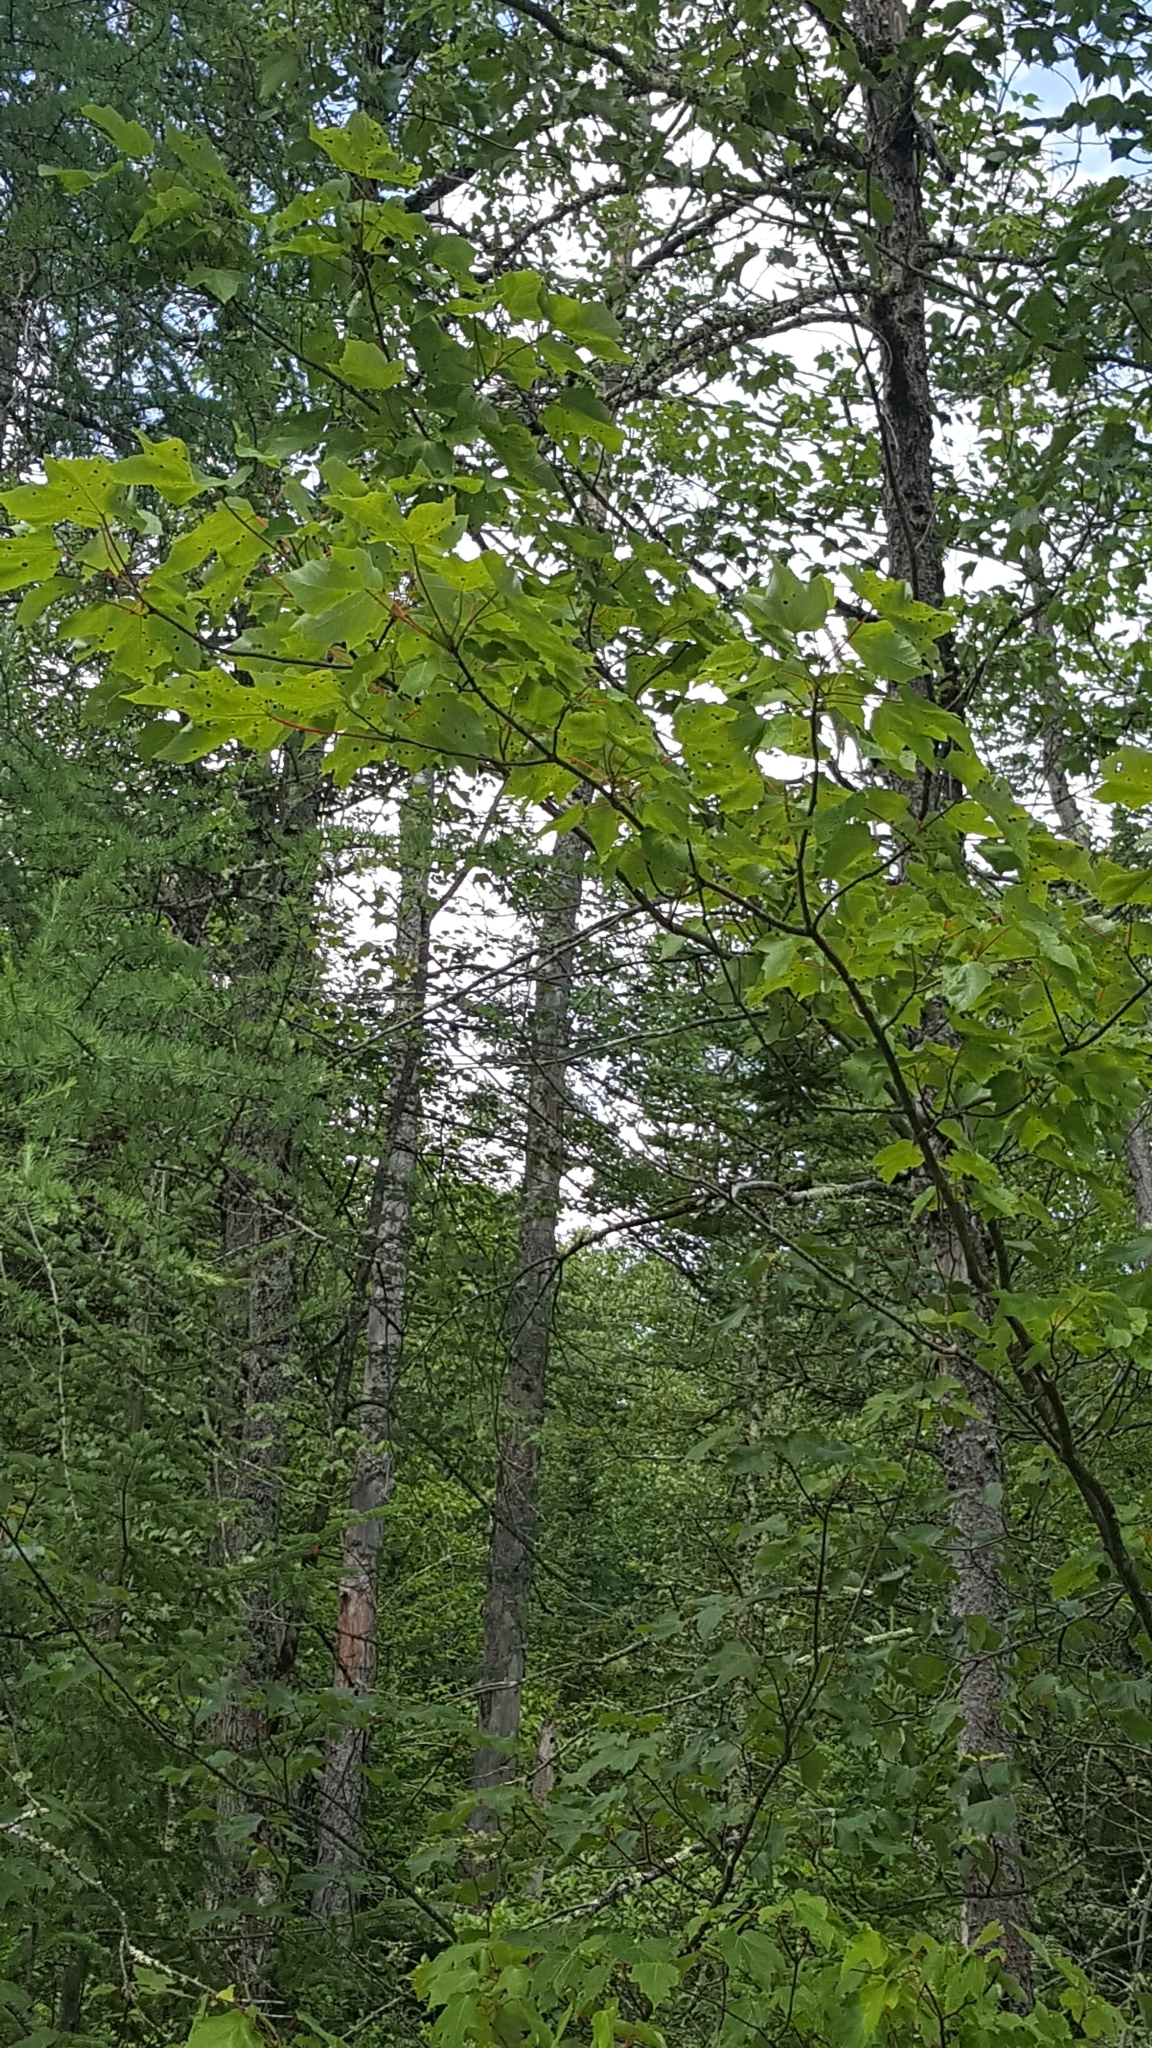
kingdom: Plantae
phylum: Tracheophyta
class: Magnoliopsida
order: Sapindales
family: Sapindaceae
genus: Acer
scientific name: Acer rubrum
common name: Red maple
